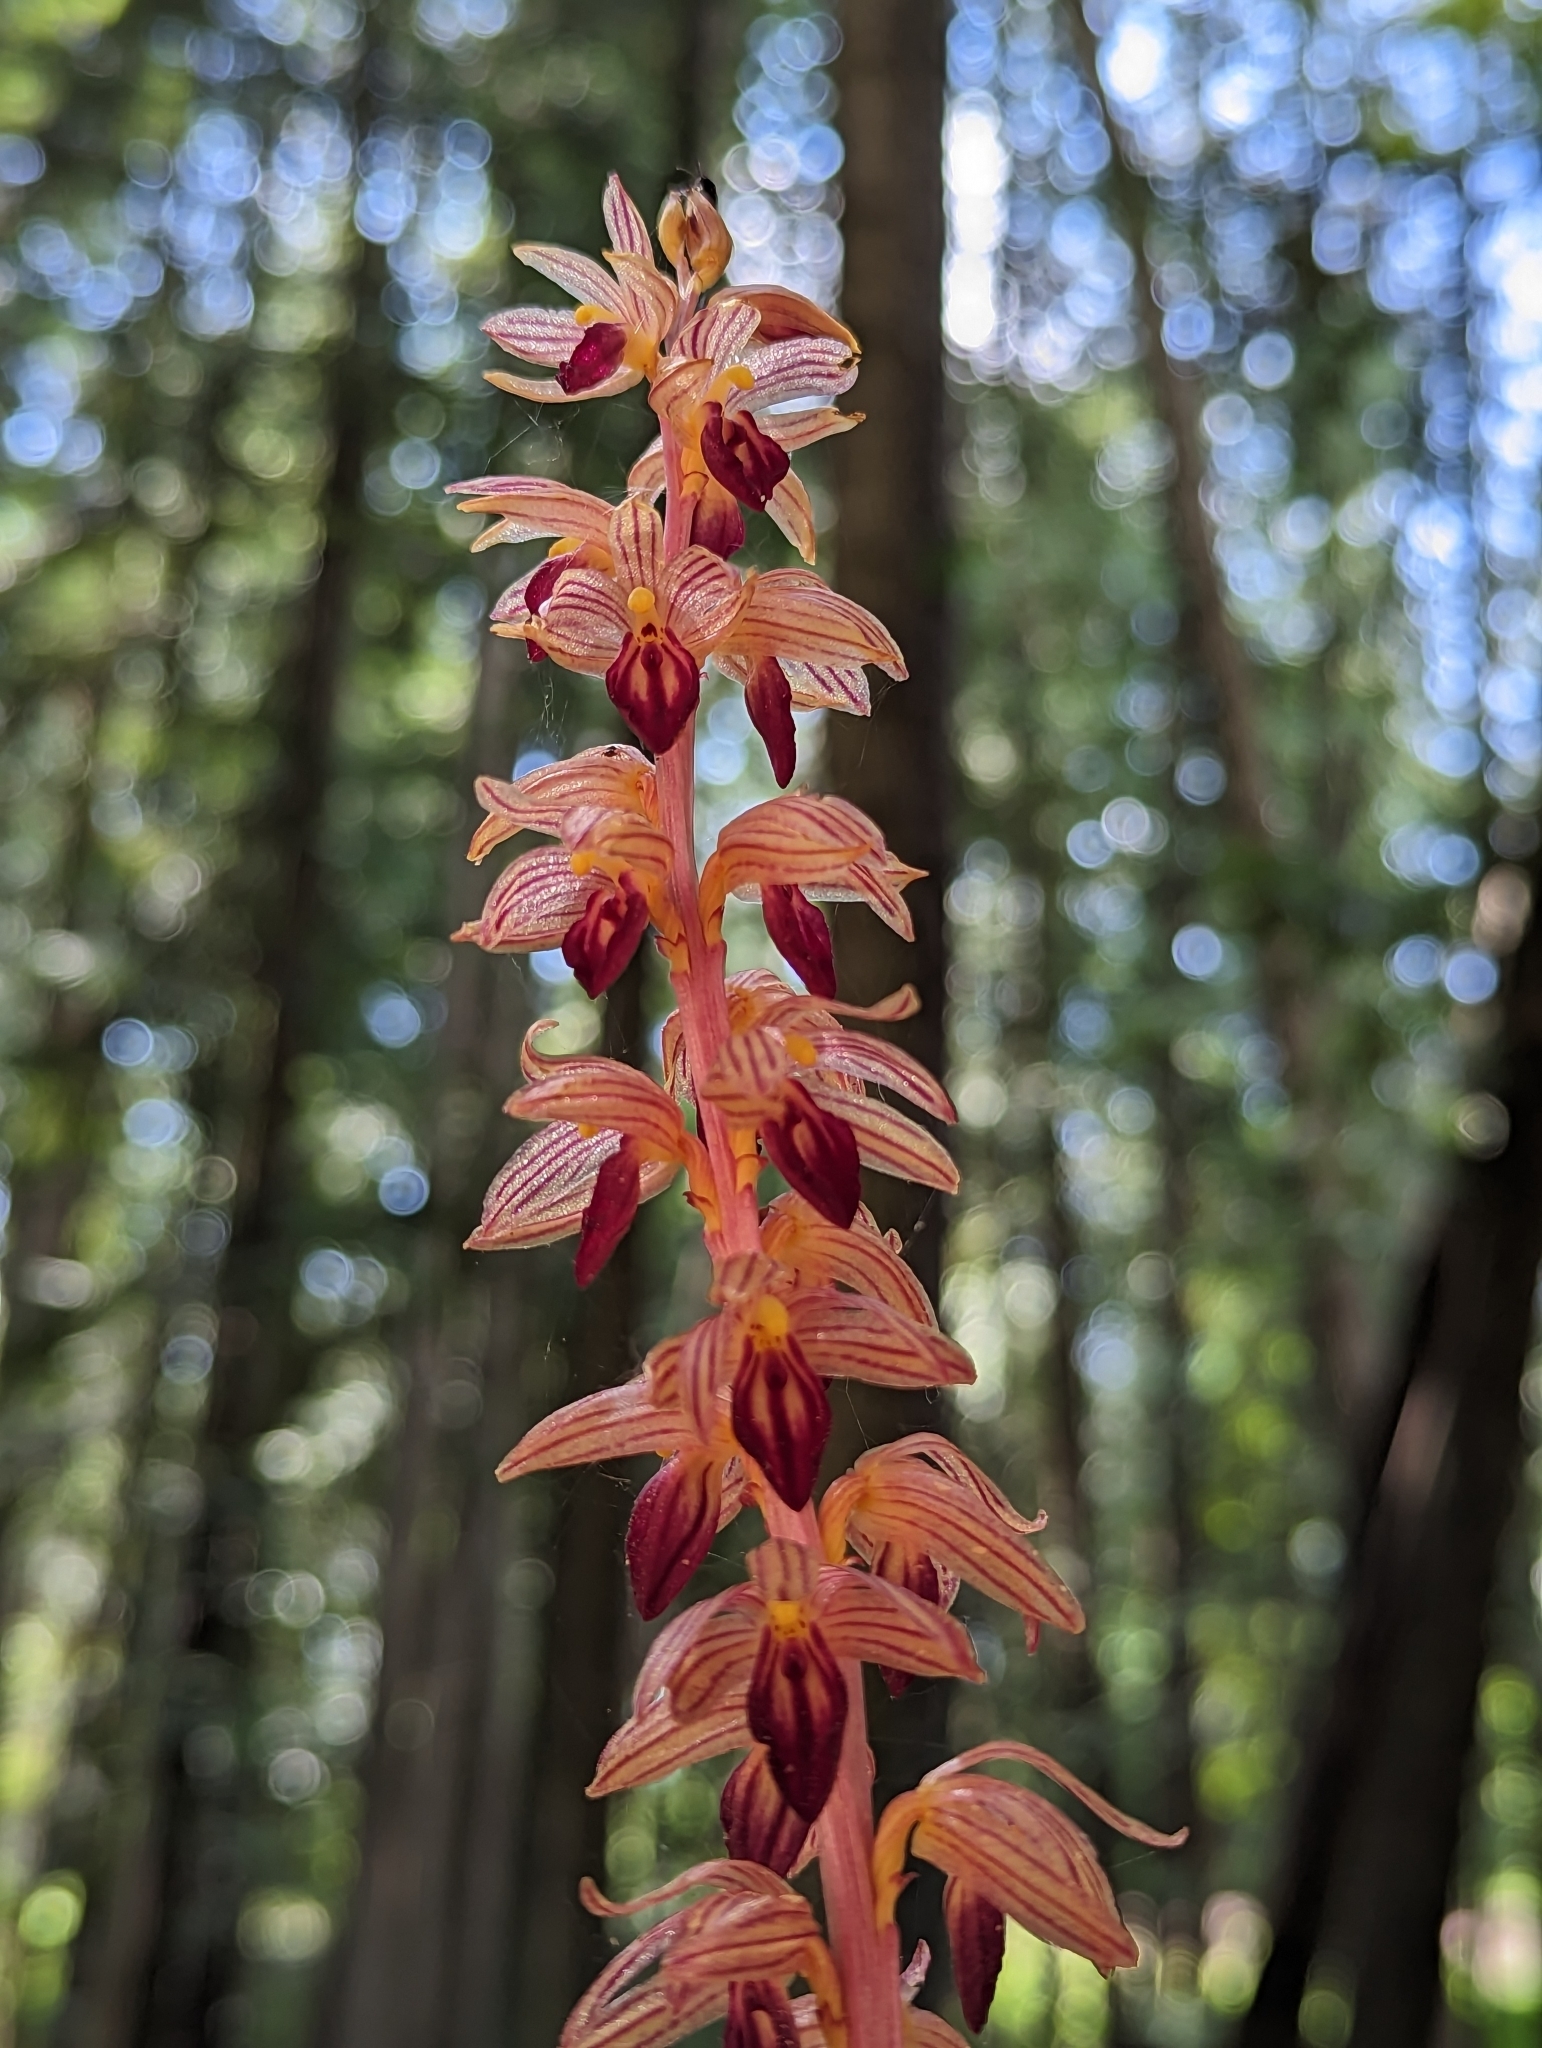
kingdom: Plantae
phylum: Tracheophyta
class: Liliopsida
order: Asparagales
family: Orchidaceae
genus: Corallorhiza
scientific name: Corallorhiza striata
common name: Hooded coralroot
